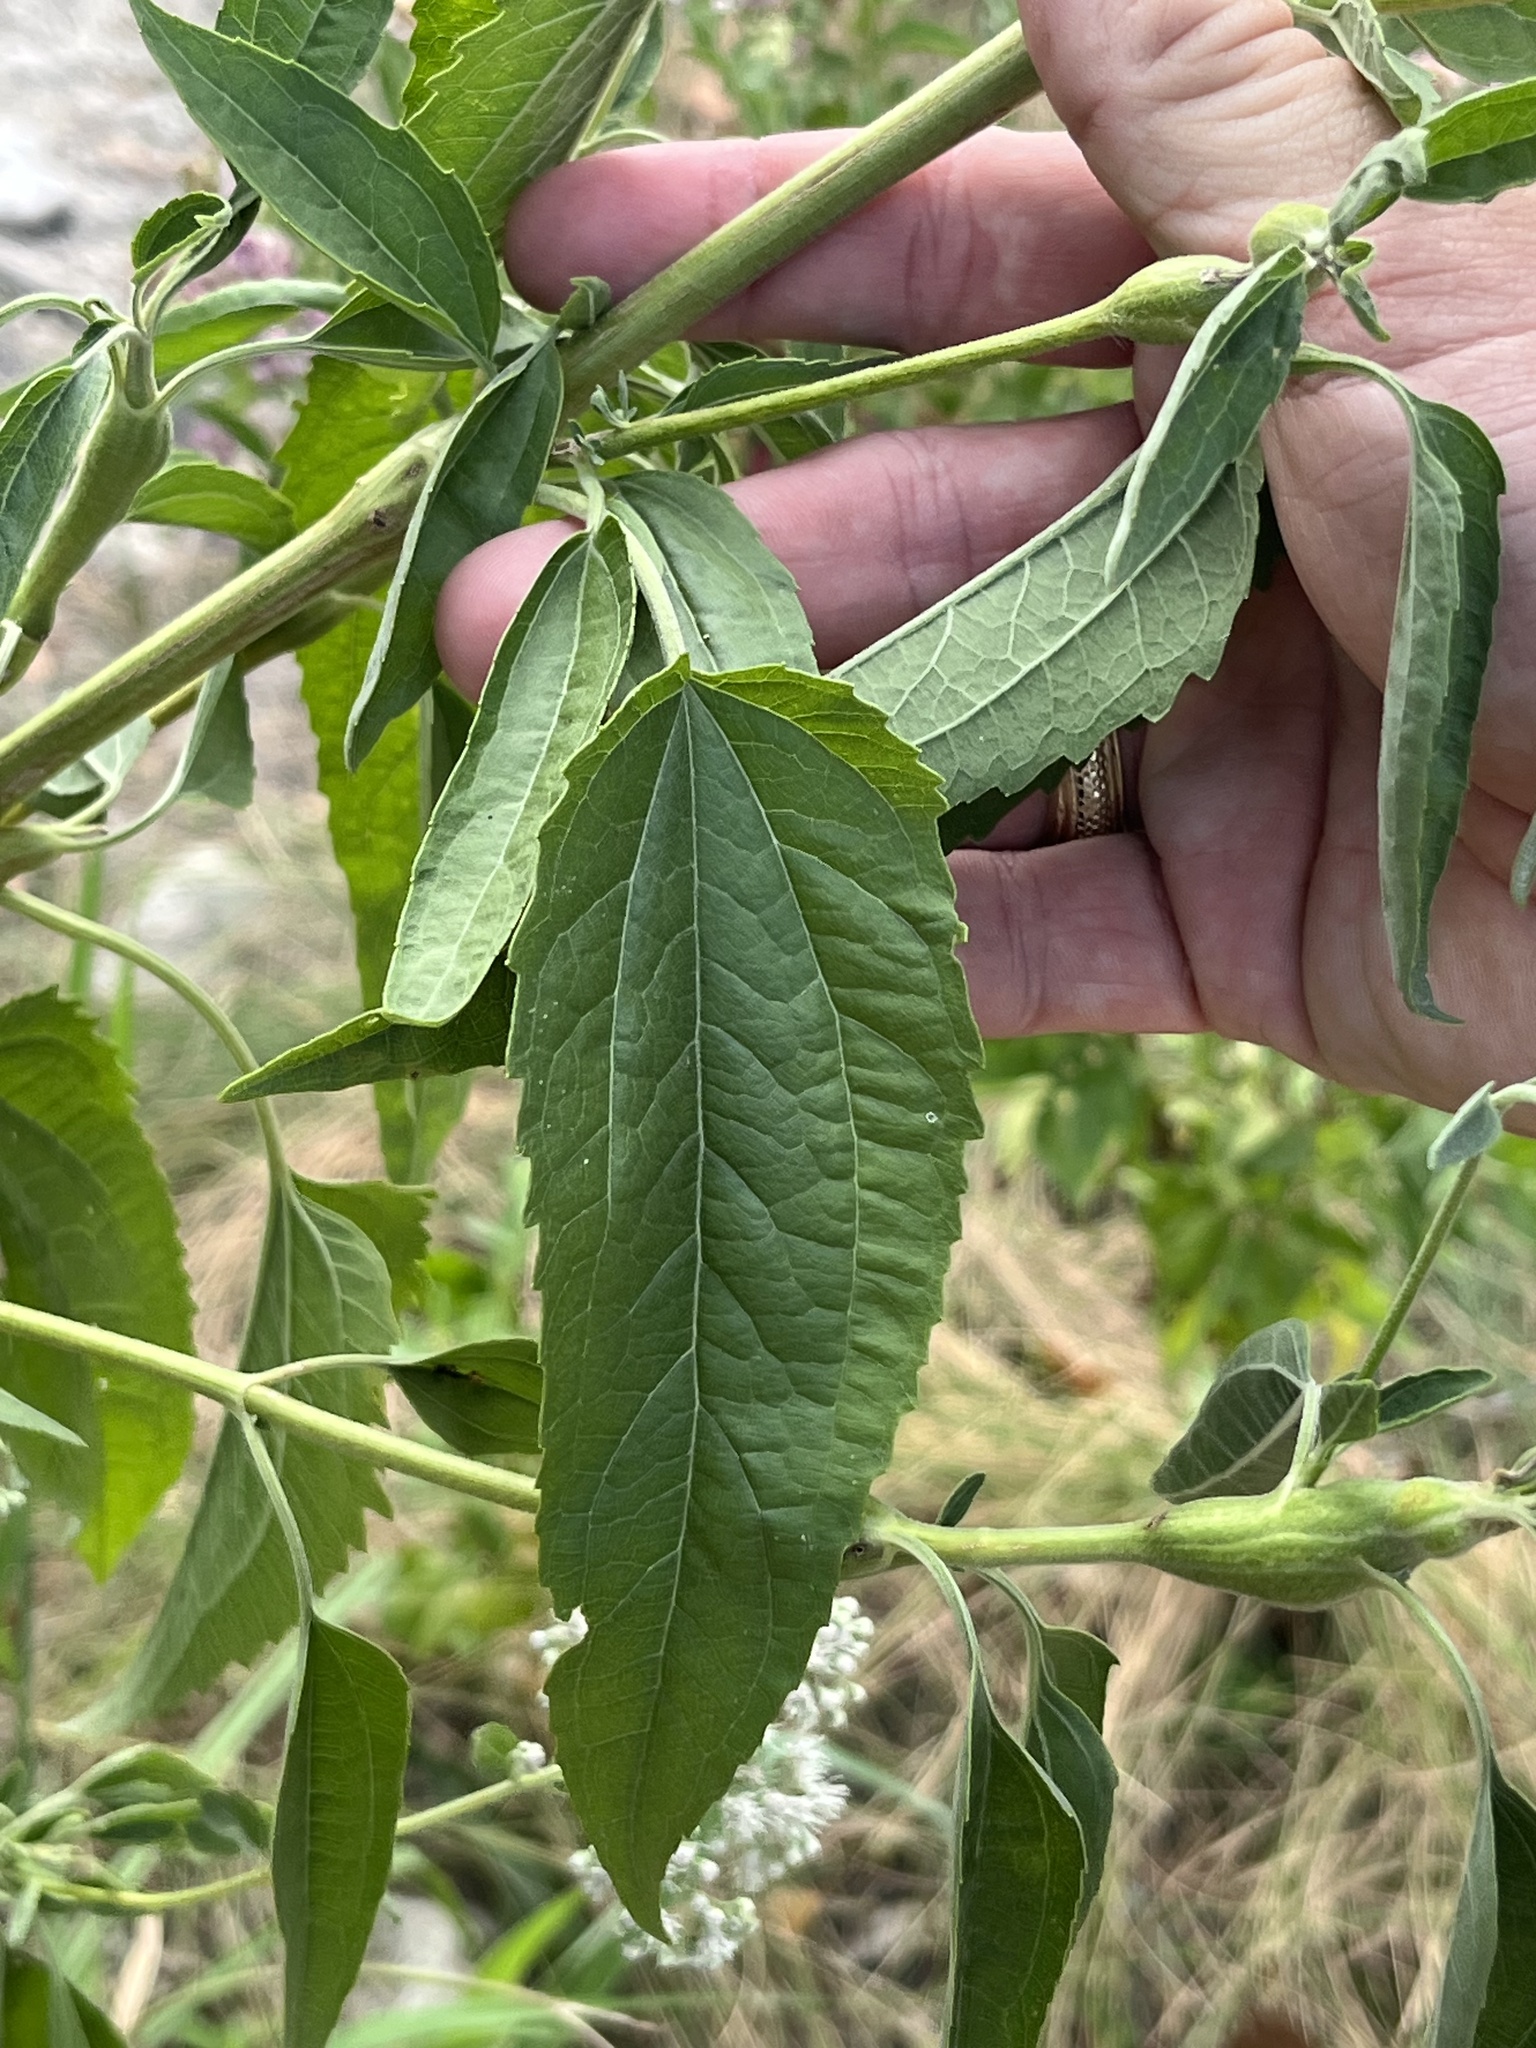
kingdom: Plantae
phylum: Tracheophyta
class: Magnoliopsida
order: Asterales
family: Asteraceae
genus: Eupatorium
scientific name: Eupatorium serotinum
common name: Late boneset
